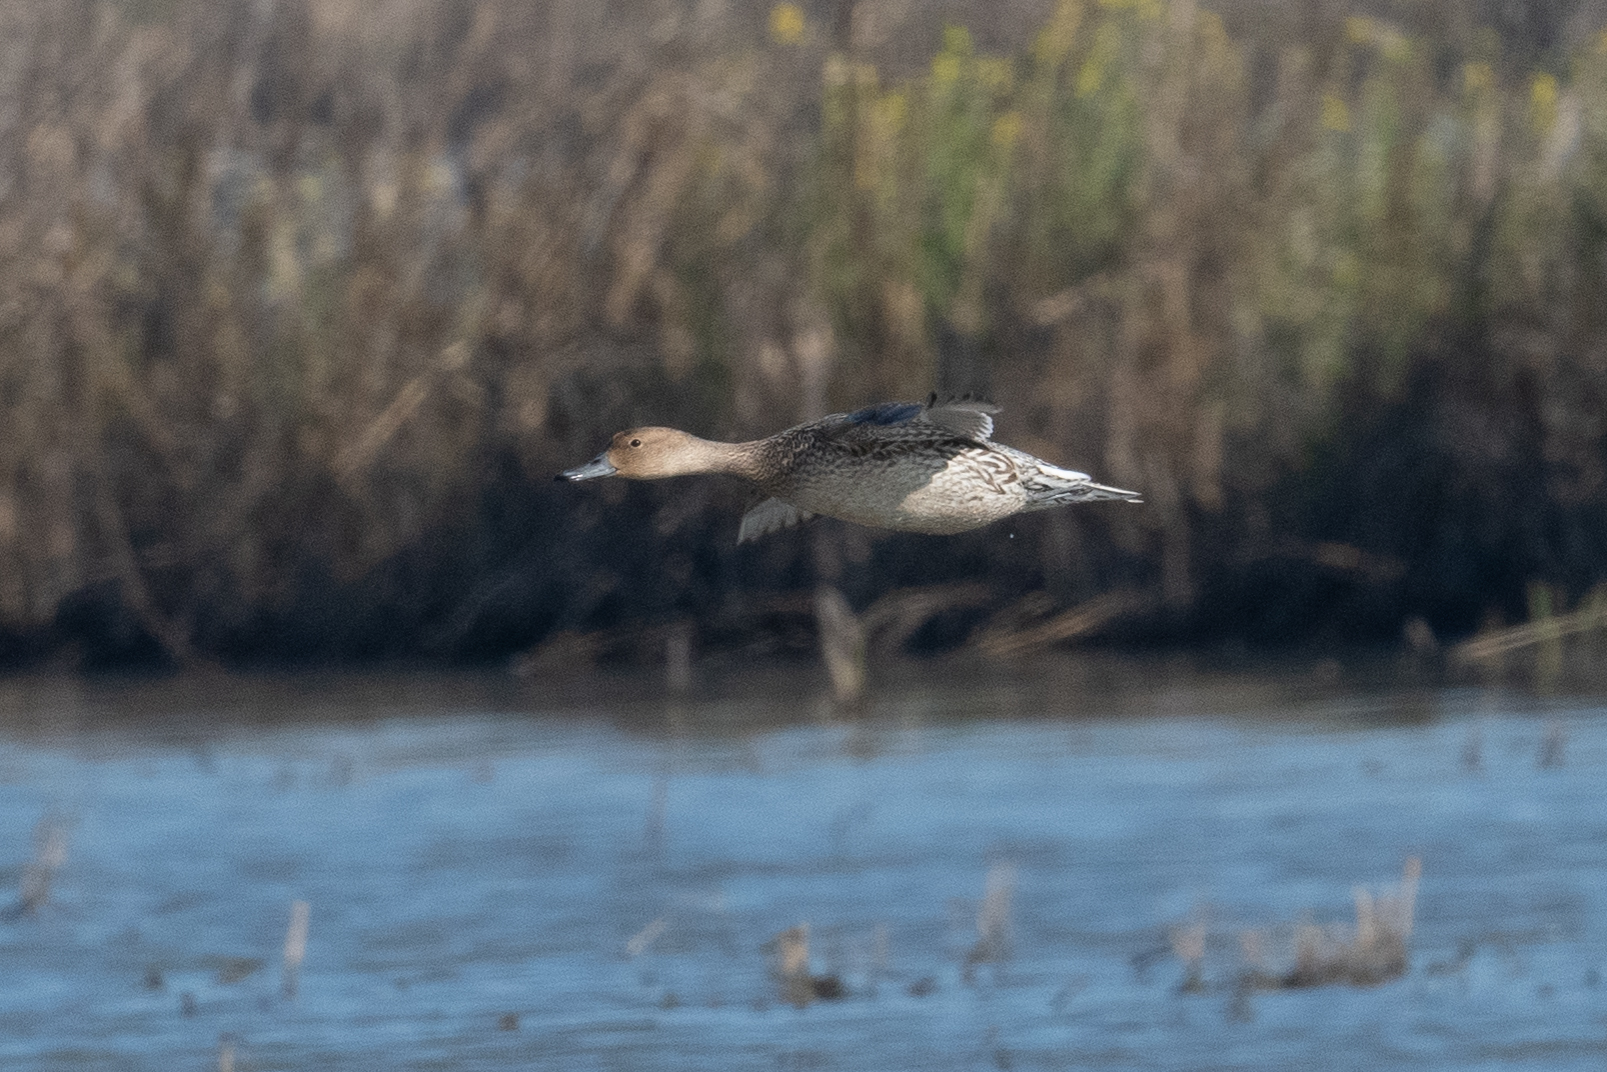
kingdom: Animalia
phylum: Chordata
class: Aves
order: Anseriformes
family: Anatidae
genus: Anas
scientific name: Anas acuta
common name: Northern pintail
